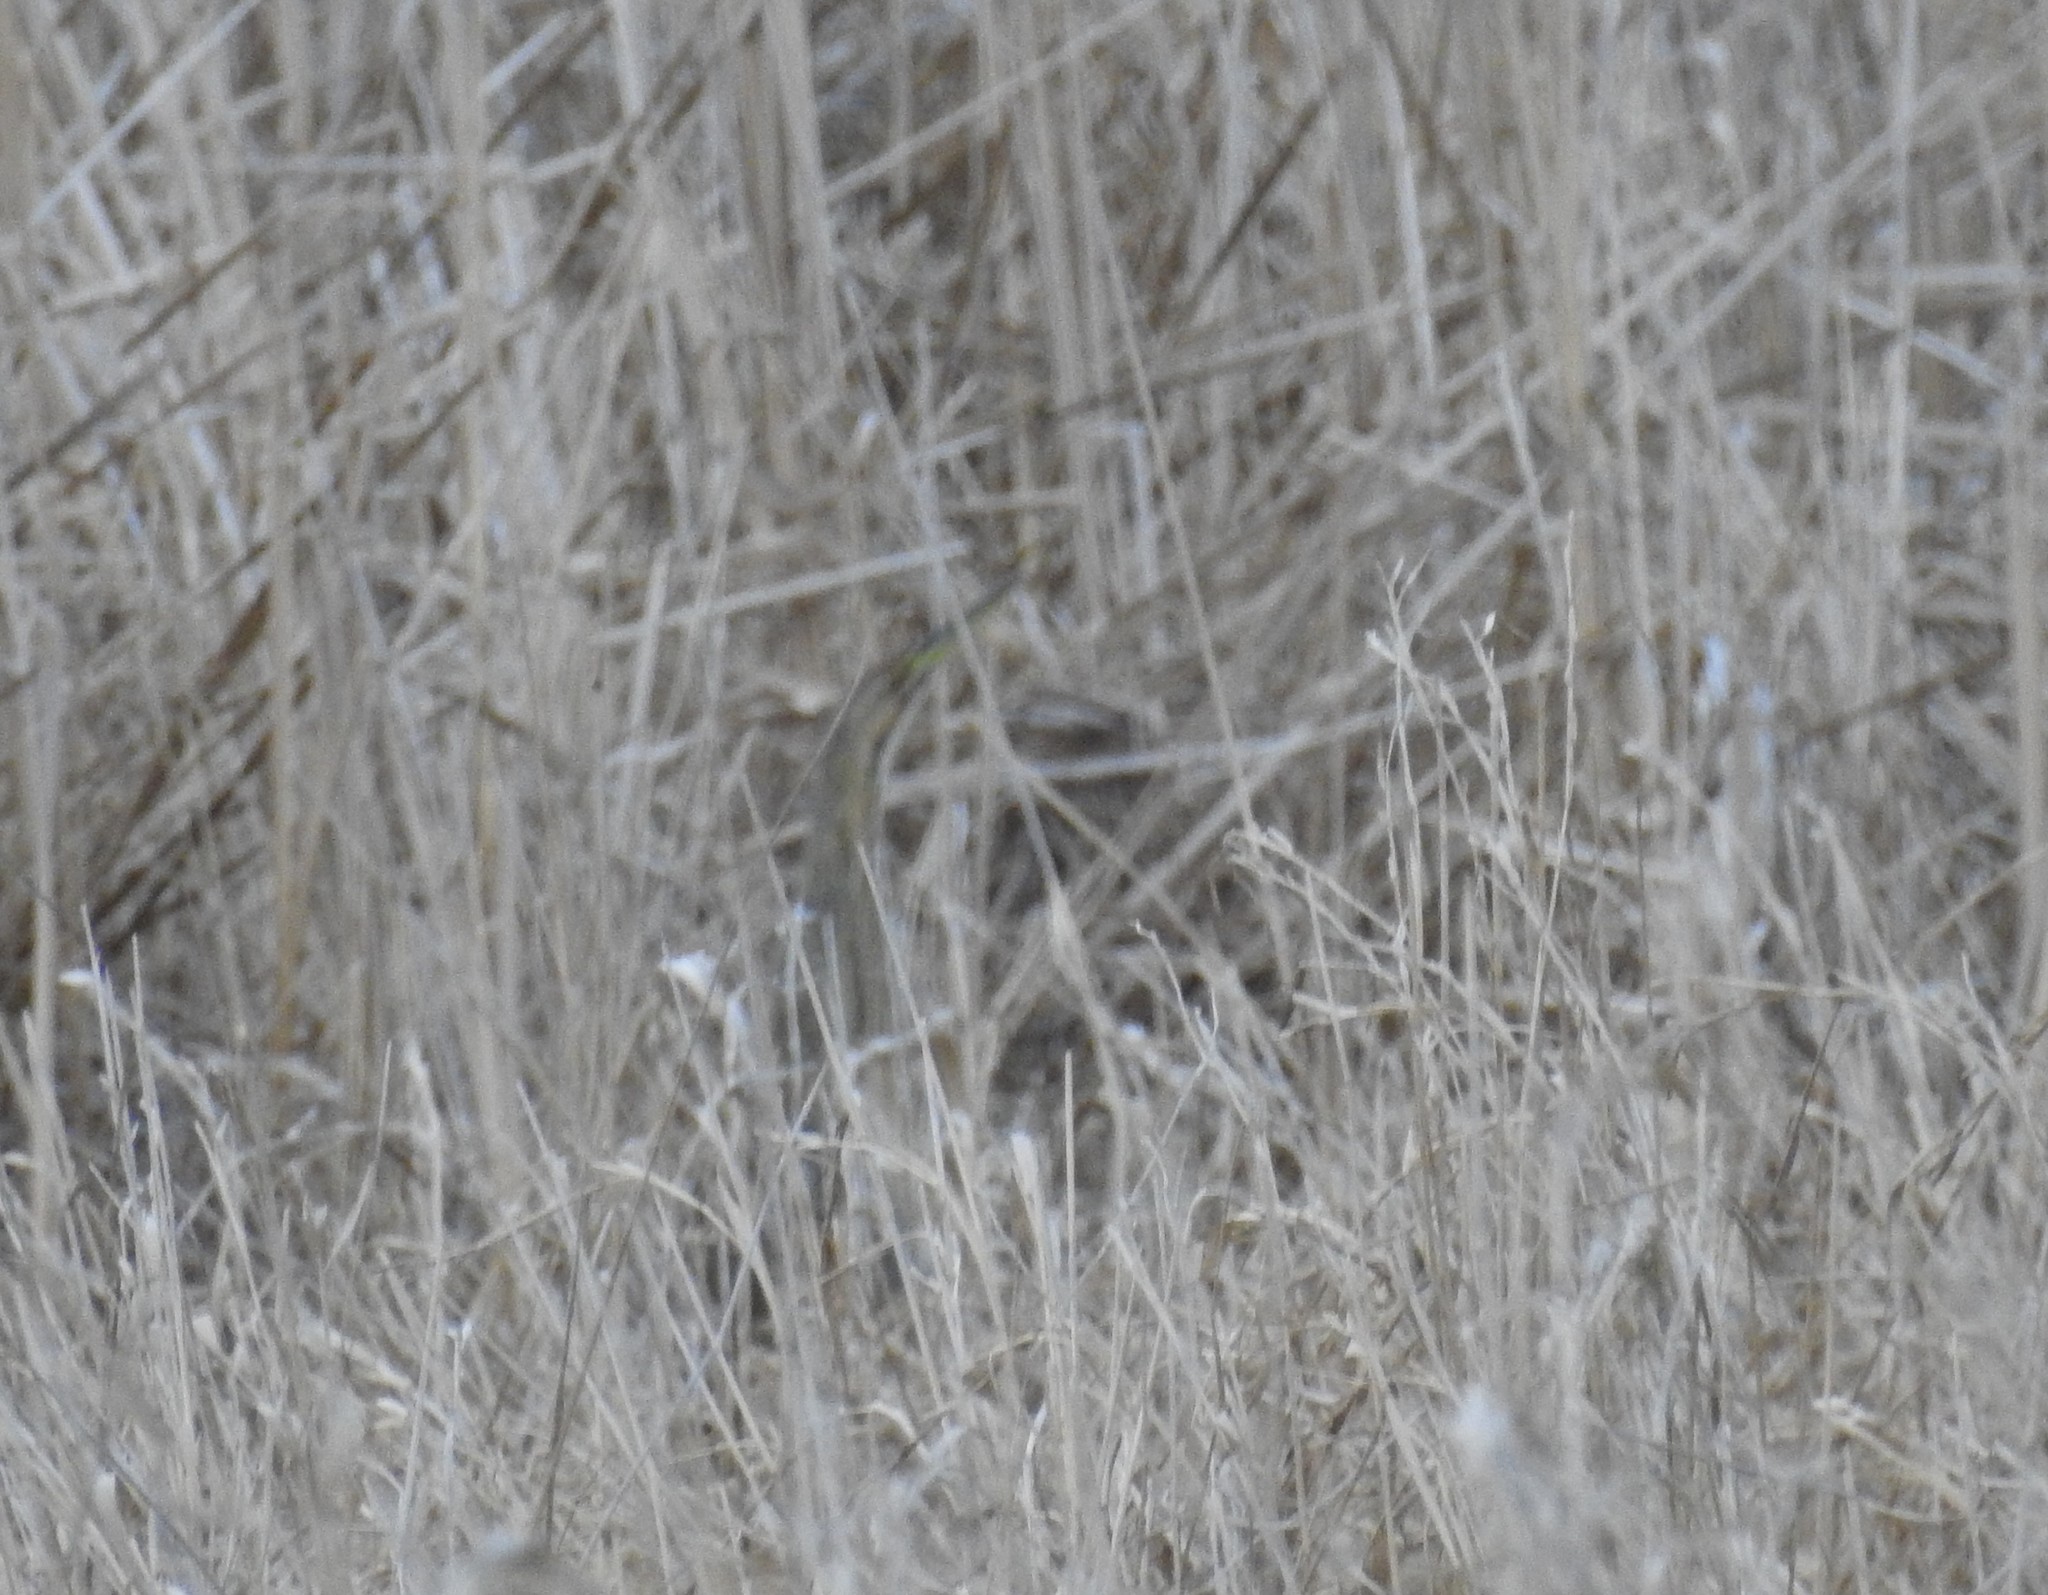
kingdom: Animalia
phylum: Chordata
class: Aves
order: Pelecaniformes
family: Ardeidae
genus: Botaurus
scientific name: Botaurus lentiginosus
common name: American bittern
